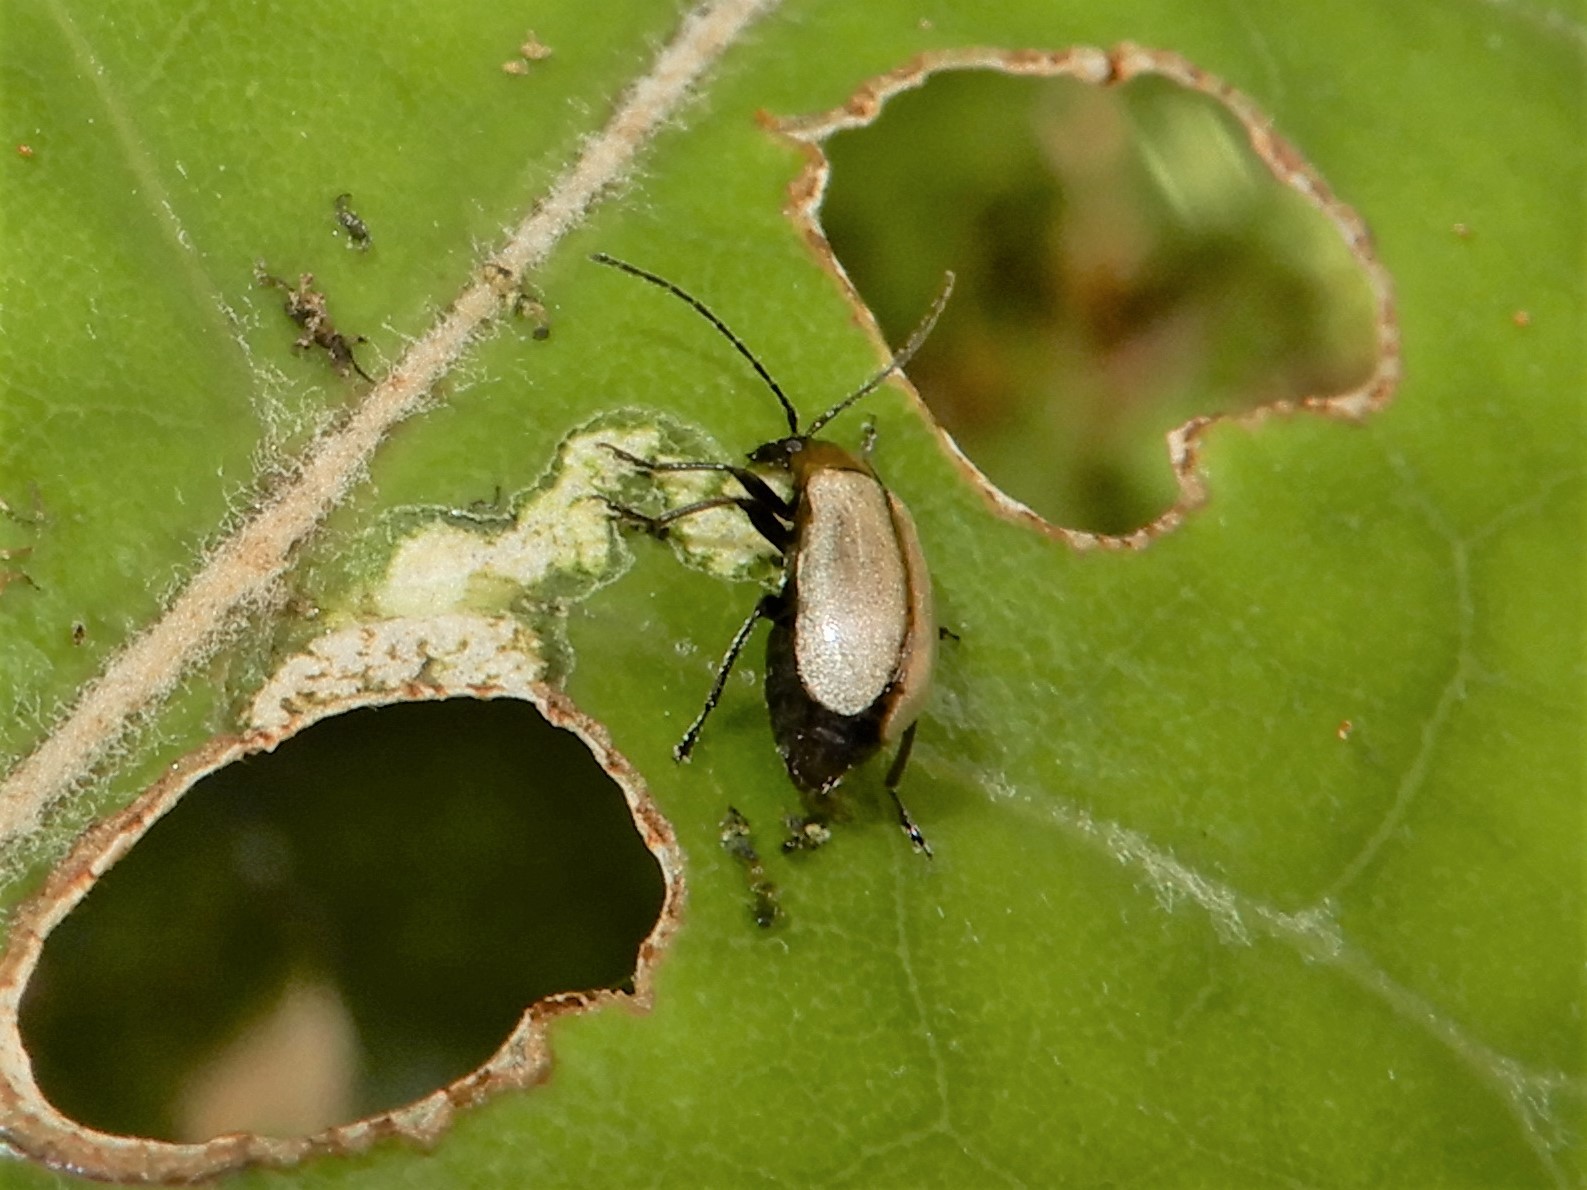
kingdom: Animalia
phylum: Arthropoda
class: Insecta
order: Coleoptera
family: Chrysomelidae
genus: Adoxia
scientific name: Adoxia
